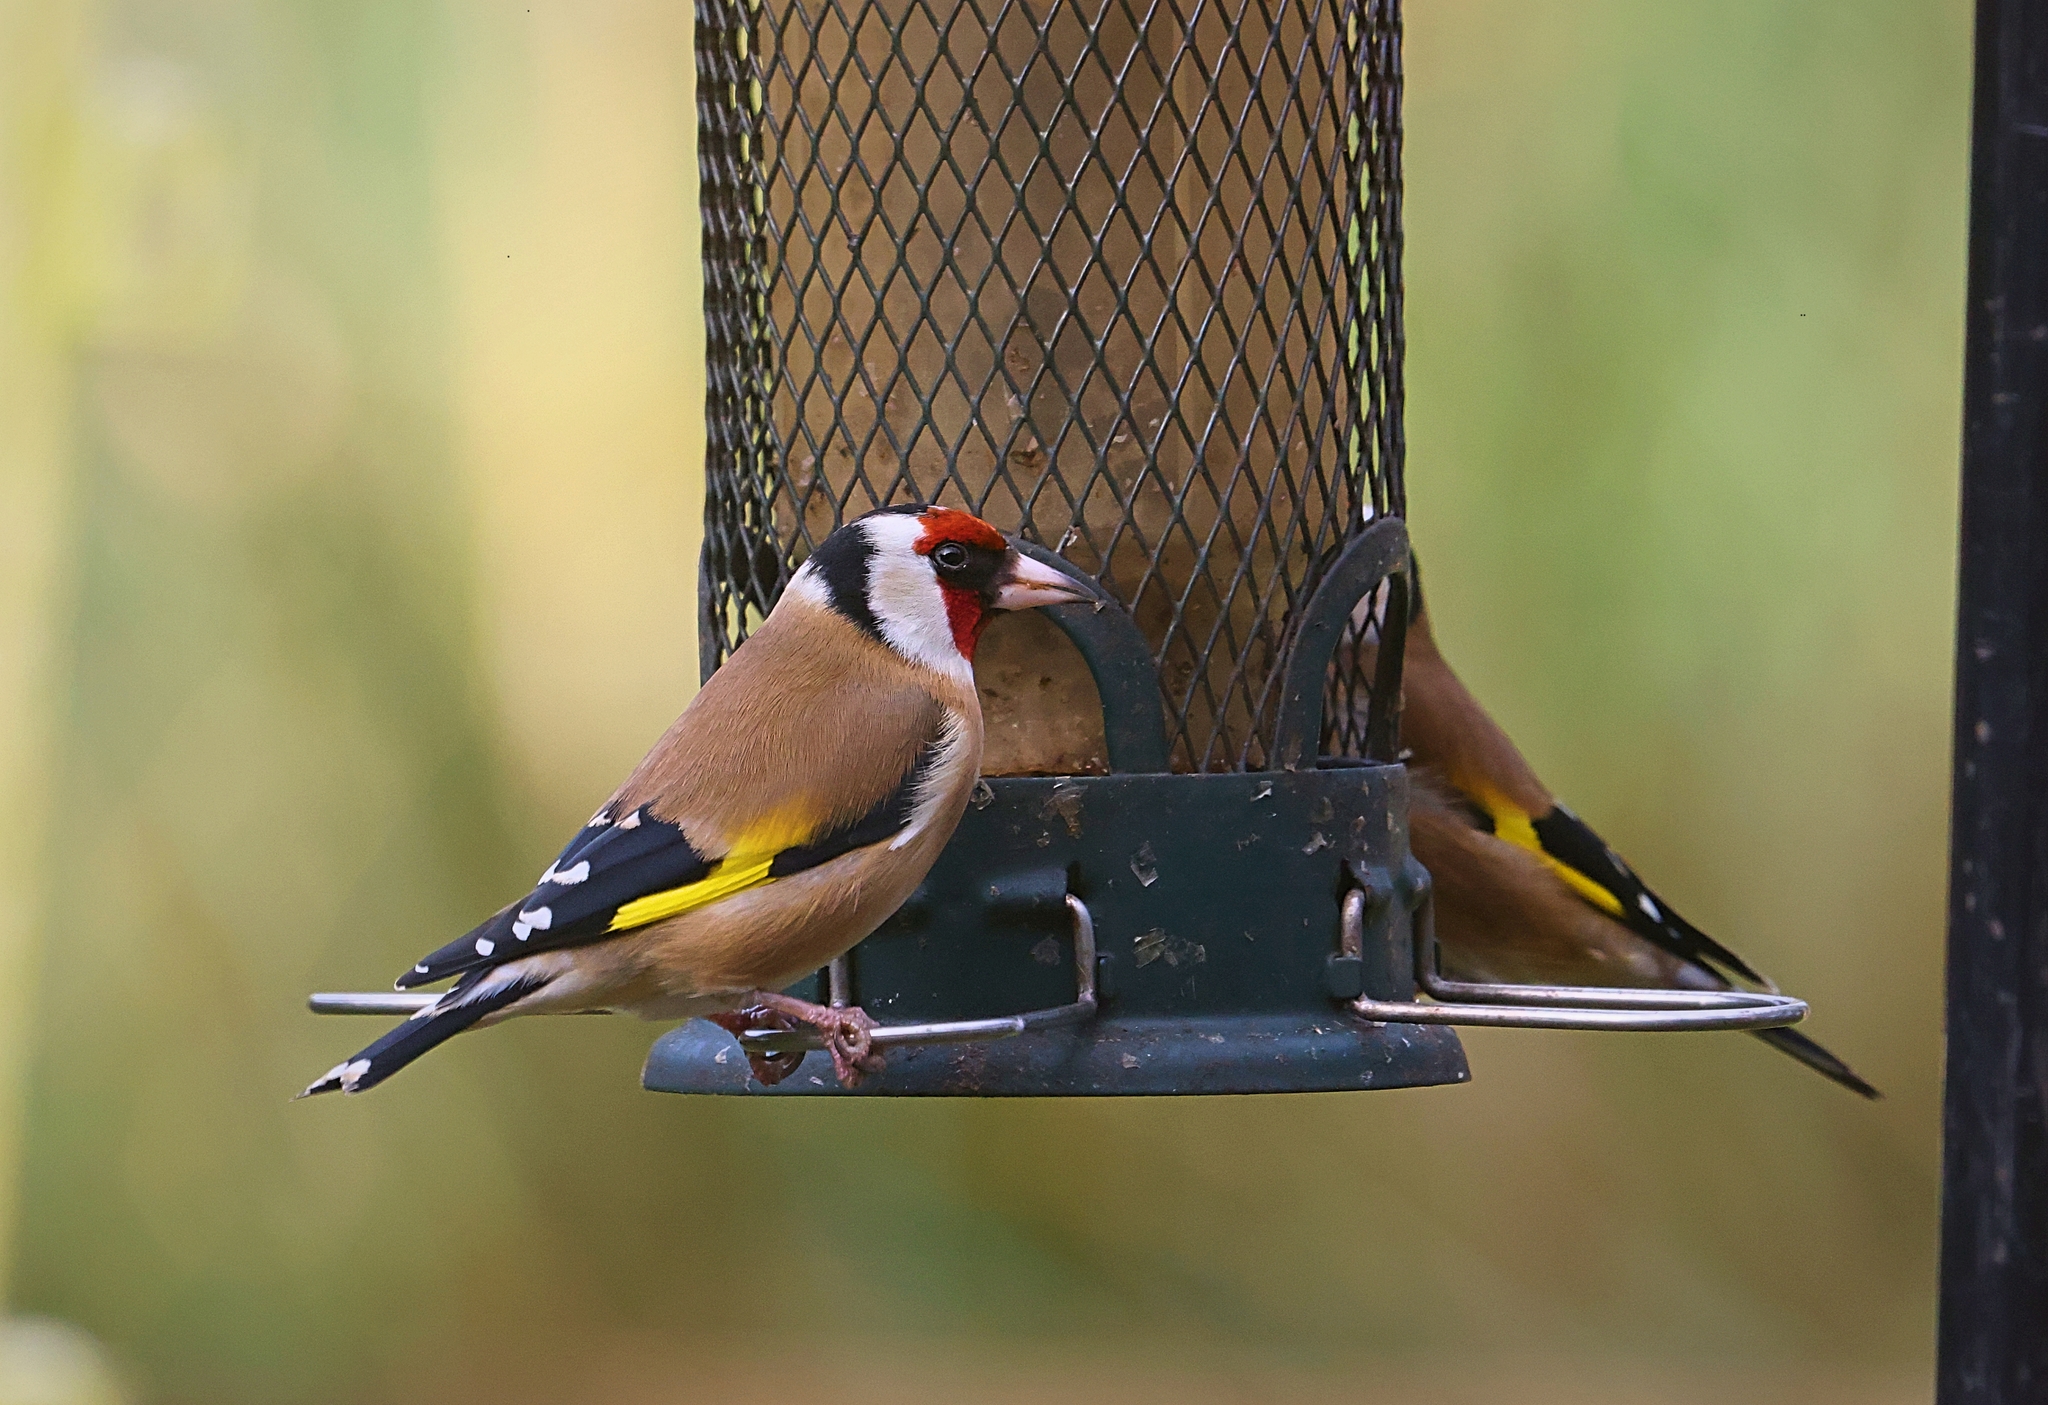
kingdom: Animalia
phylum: Chordata
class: Aves
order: Passeriformes
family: Fringillidae
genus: Carduelis
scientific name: Carduelis carduelis
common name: European goldfinch
